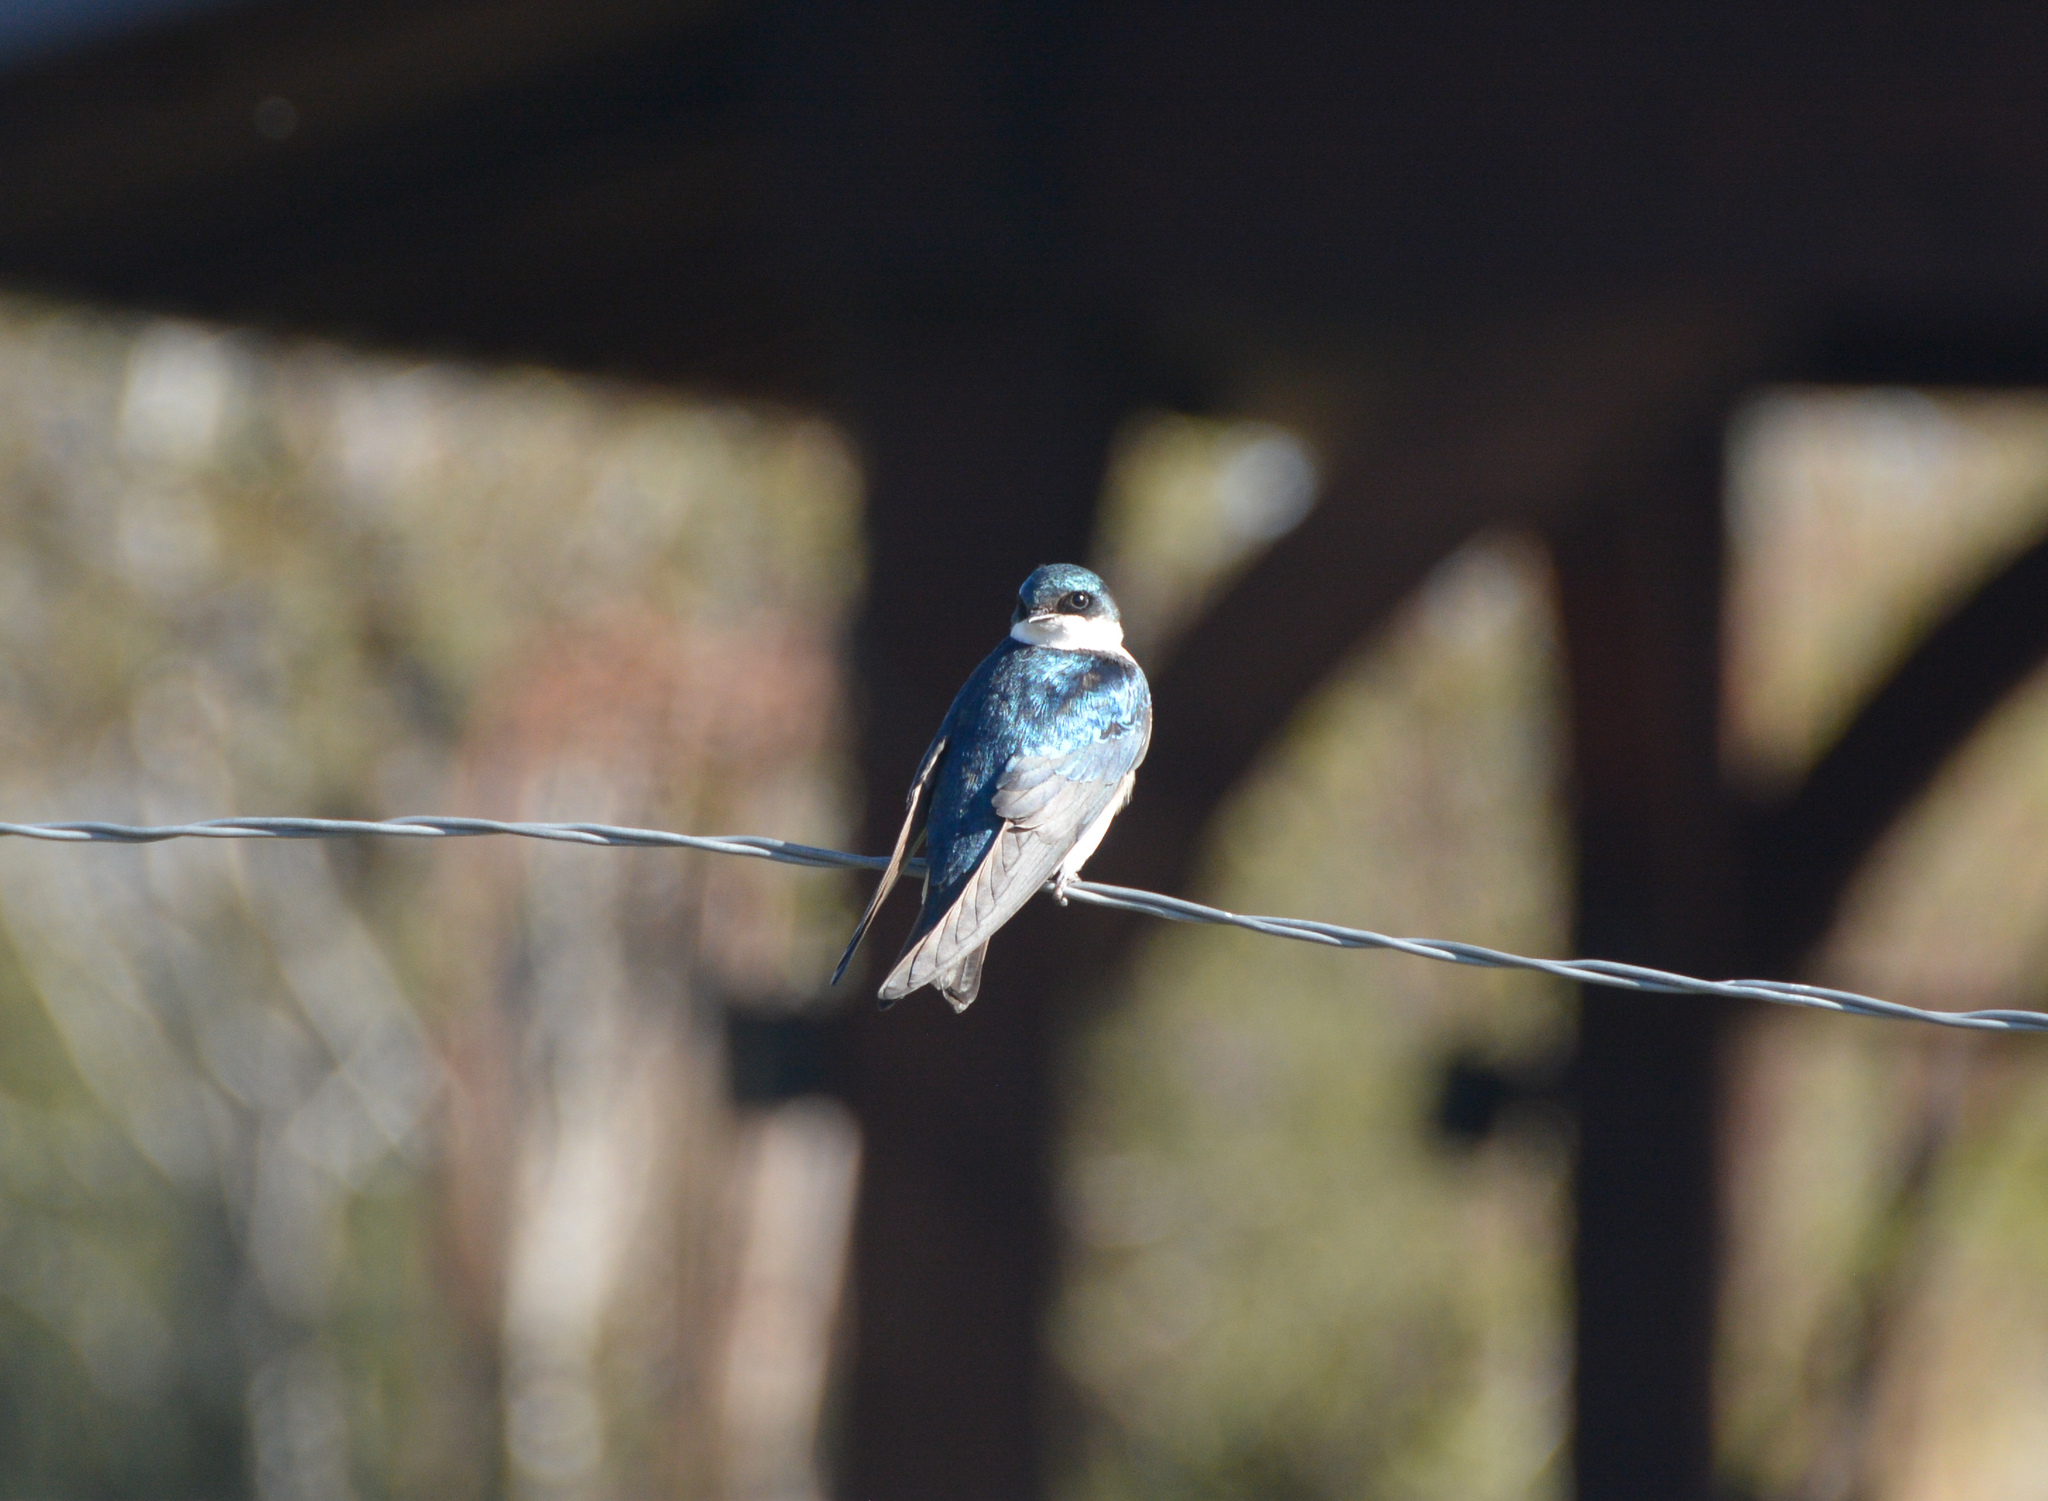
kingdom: Animalia
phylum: Chordata
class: Aves
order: Passeriformes
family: Hirundinidae
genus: Tachycineta
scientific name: Tachycineta bicolor
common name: Tree swallow
